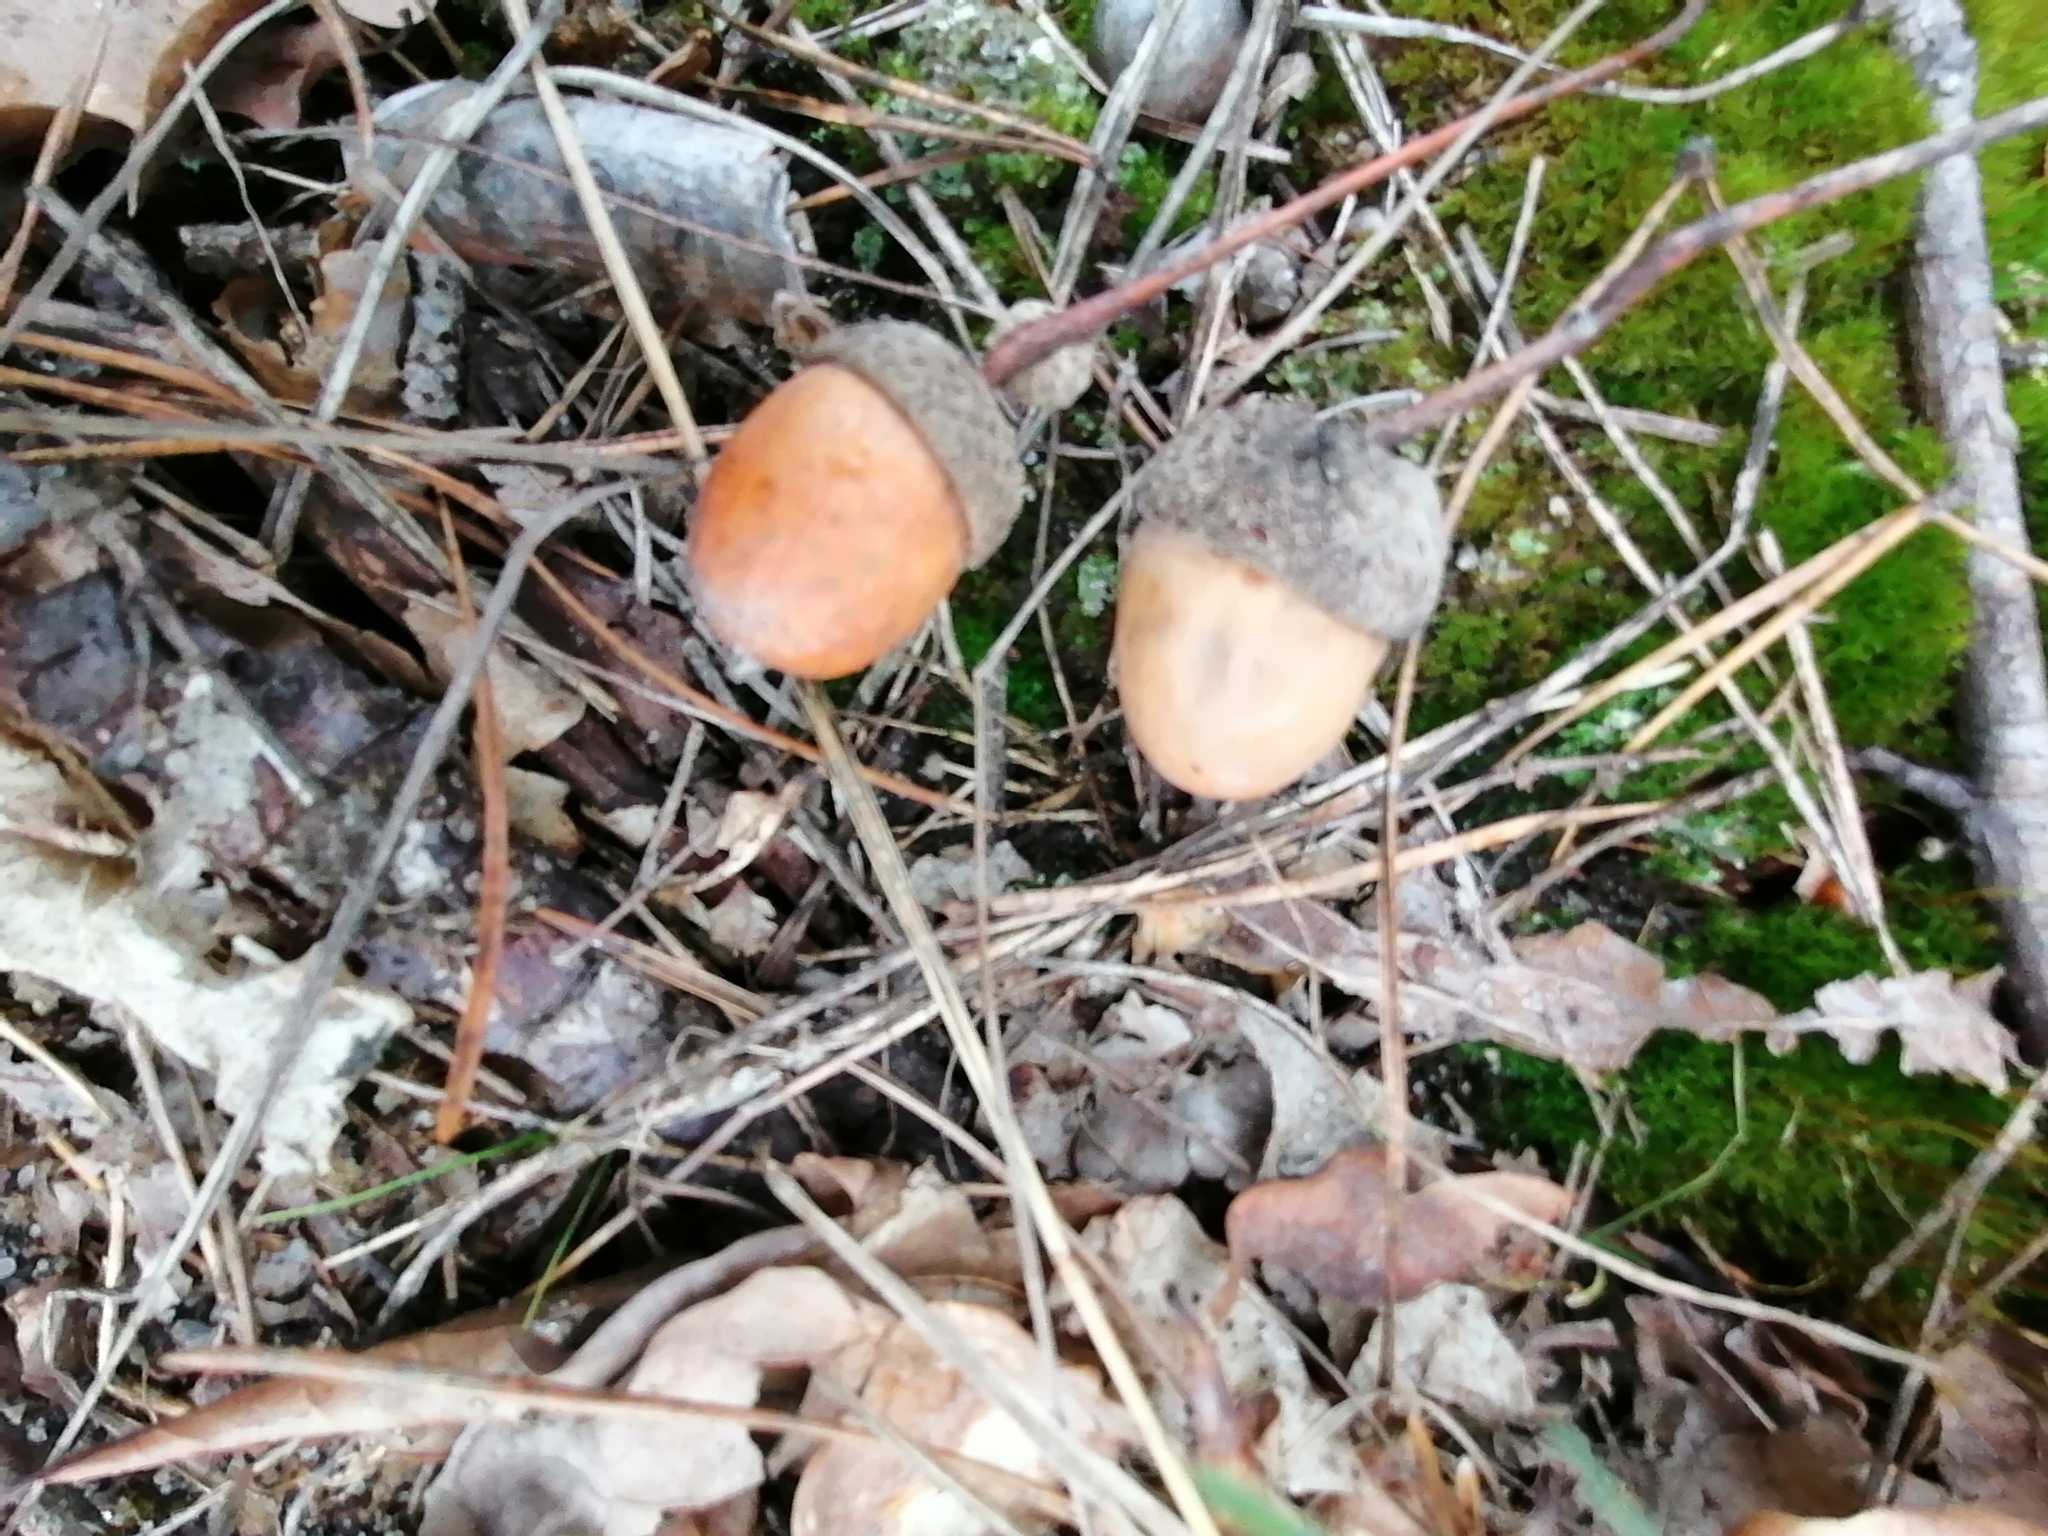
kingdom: Plantae
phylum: Tracheophyta
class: Magnoliopsida
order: Fagales
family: Fagaceae
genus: Quercus
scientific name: Quercus robur
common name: Pedunculate oak
